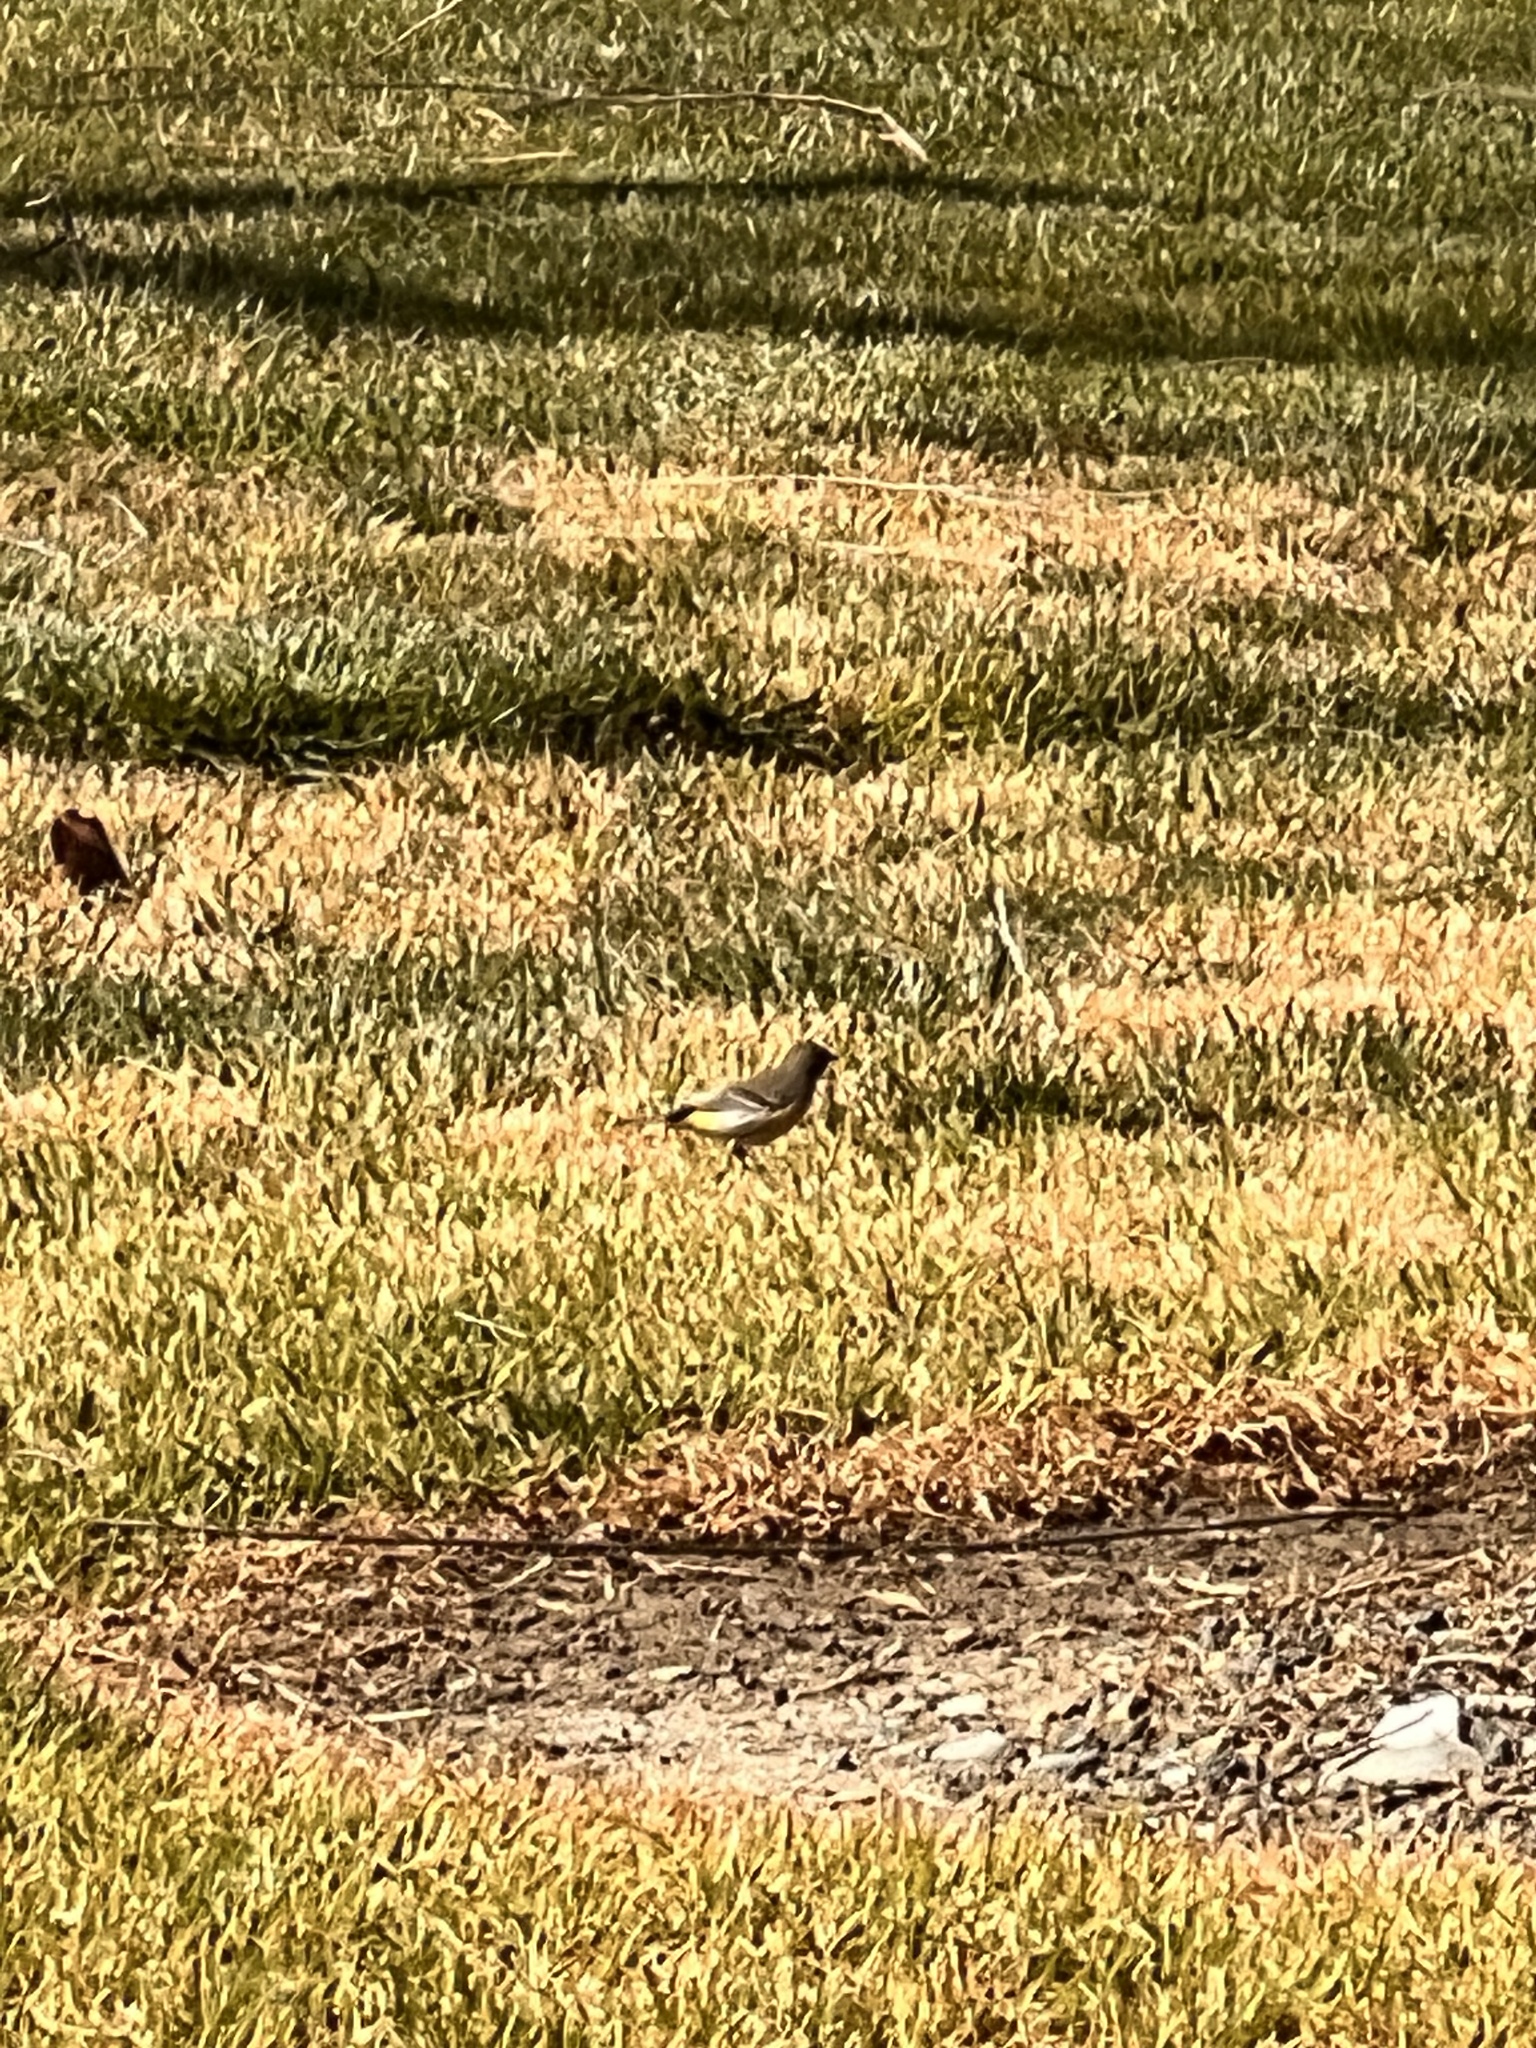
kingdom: Animalia
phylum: Chordata
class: Aves
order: Passeriformes
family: Parulidae
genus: Setophaga
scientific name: Setophaga coronata
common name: Myrtle warbler
